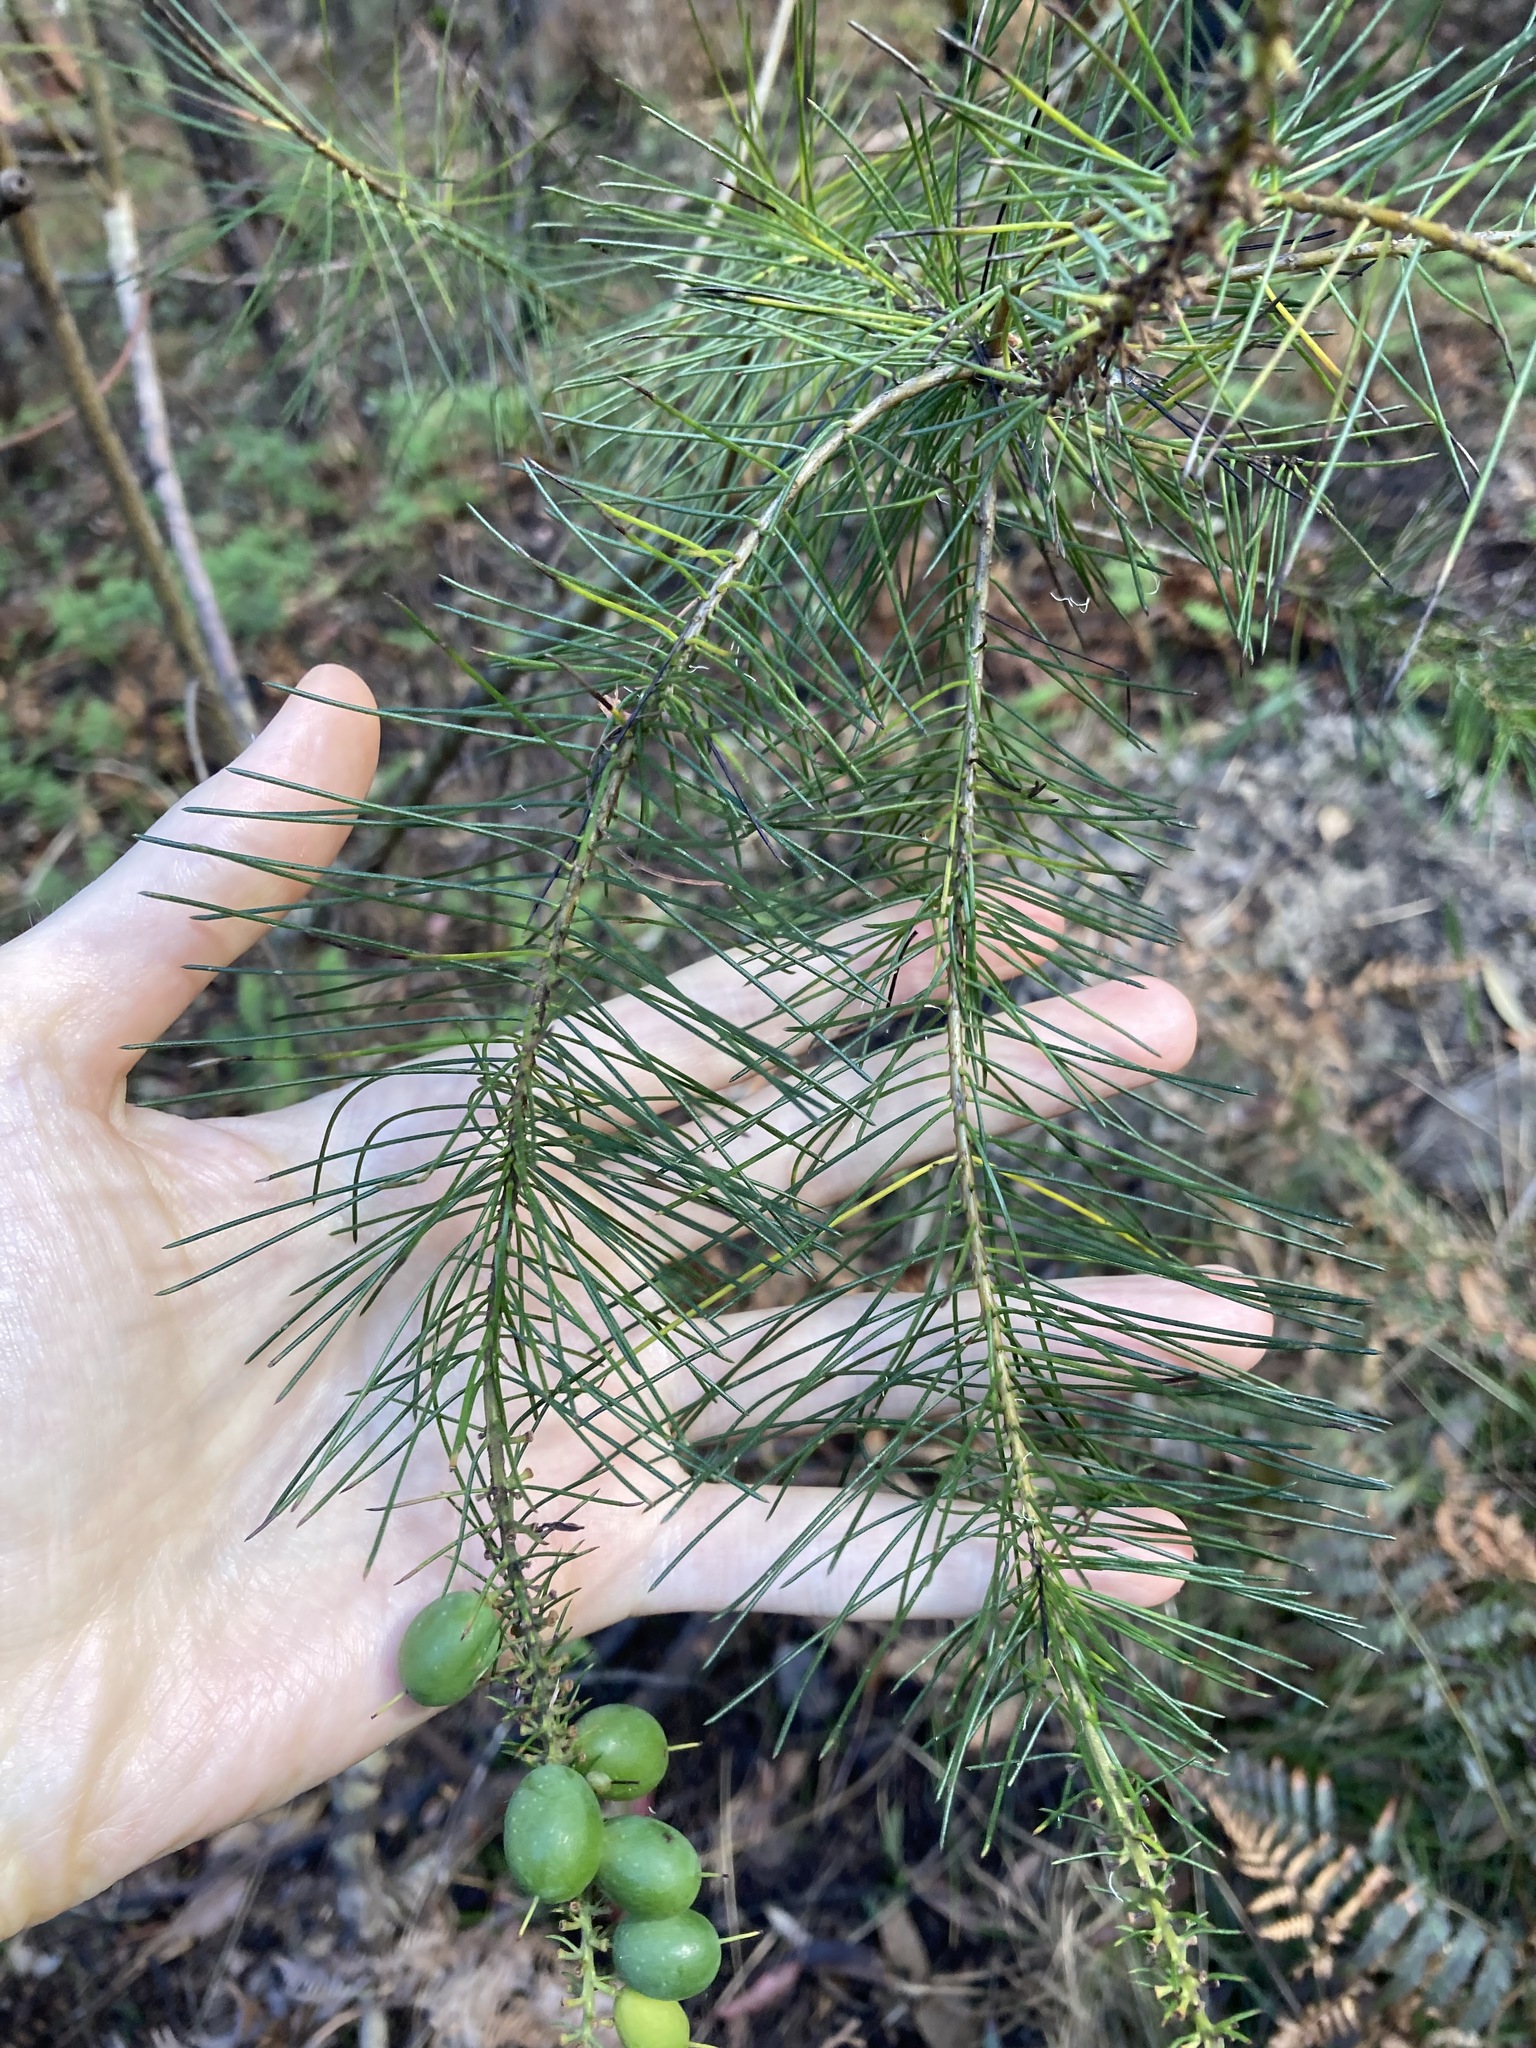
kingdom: Plantae
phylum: Tracheophyta
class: Magnoliopsida
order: Proteales
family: Proteaceae
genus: Persoonia
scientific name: Persoonia pinifolia
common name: Pine-leaf geebung
